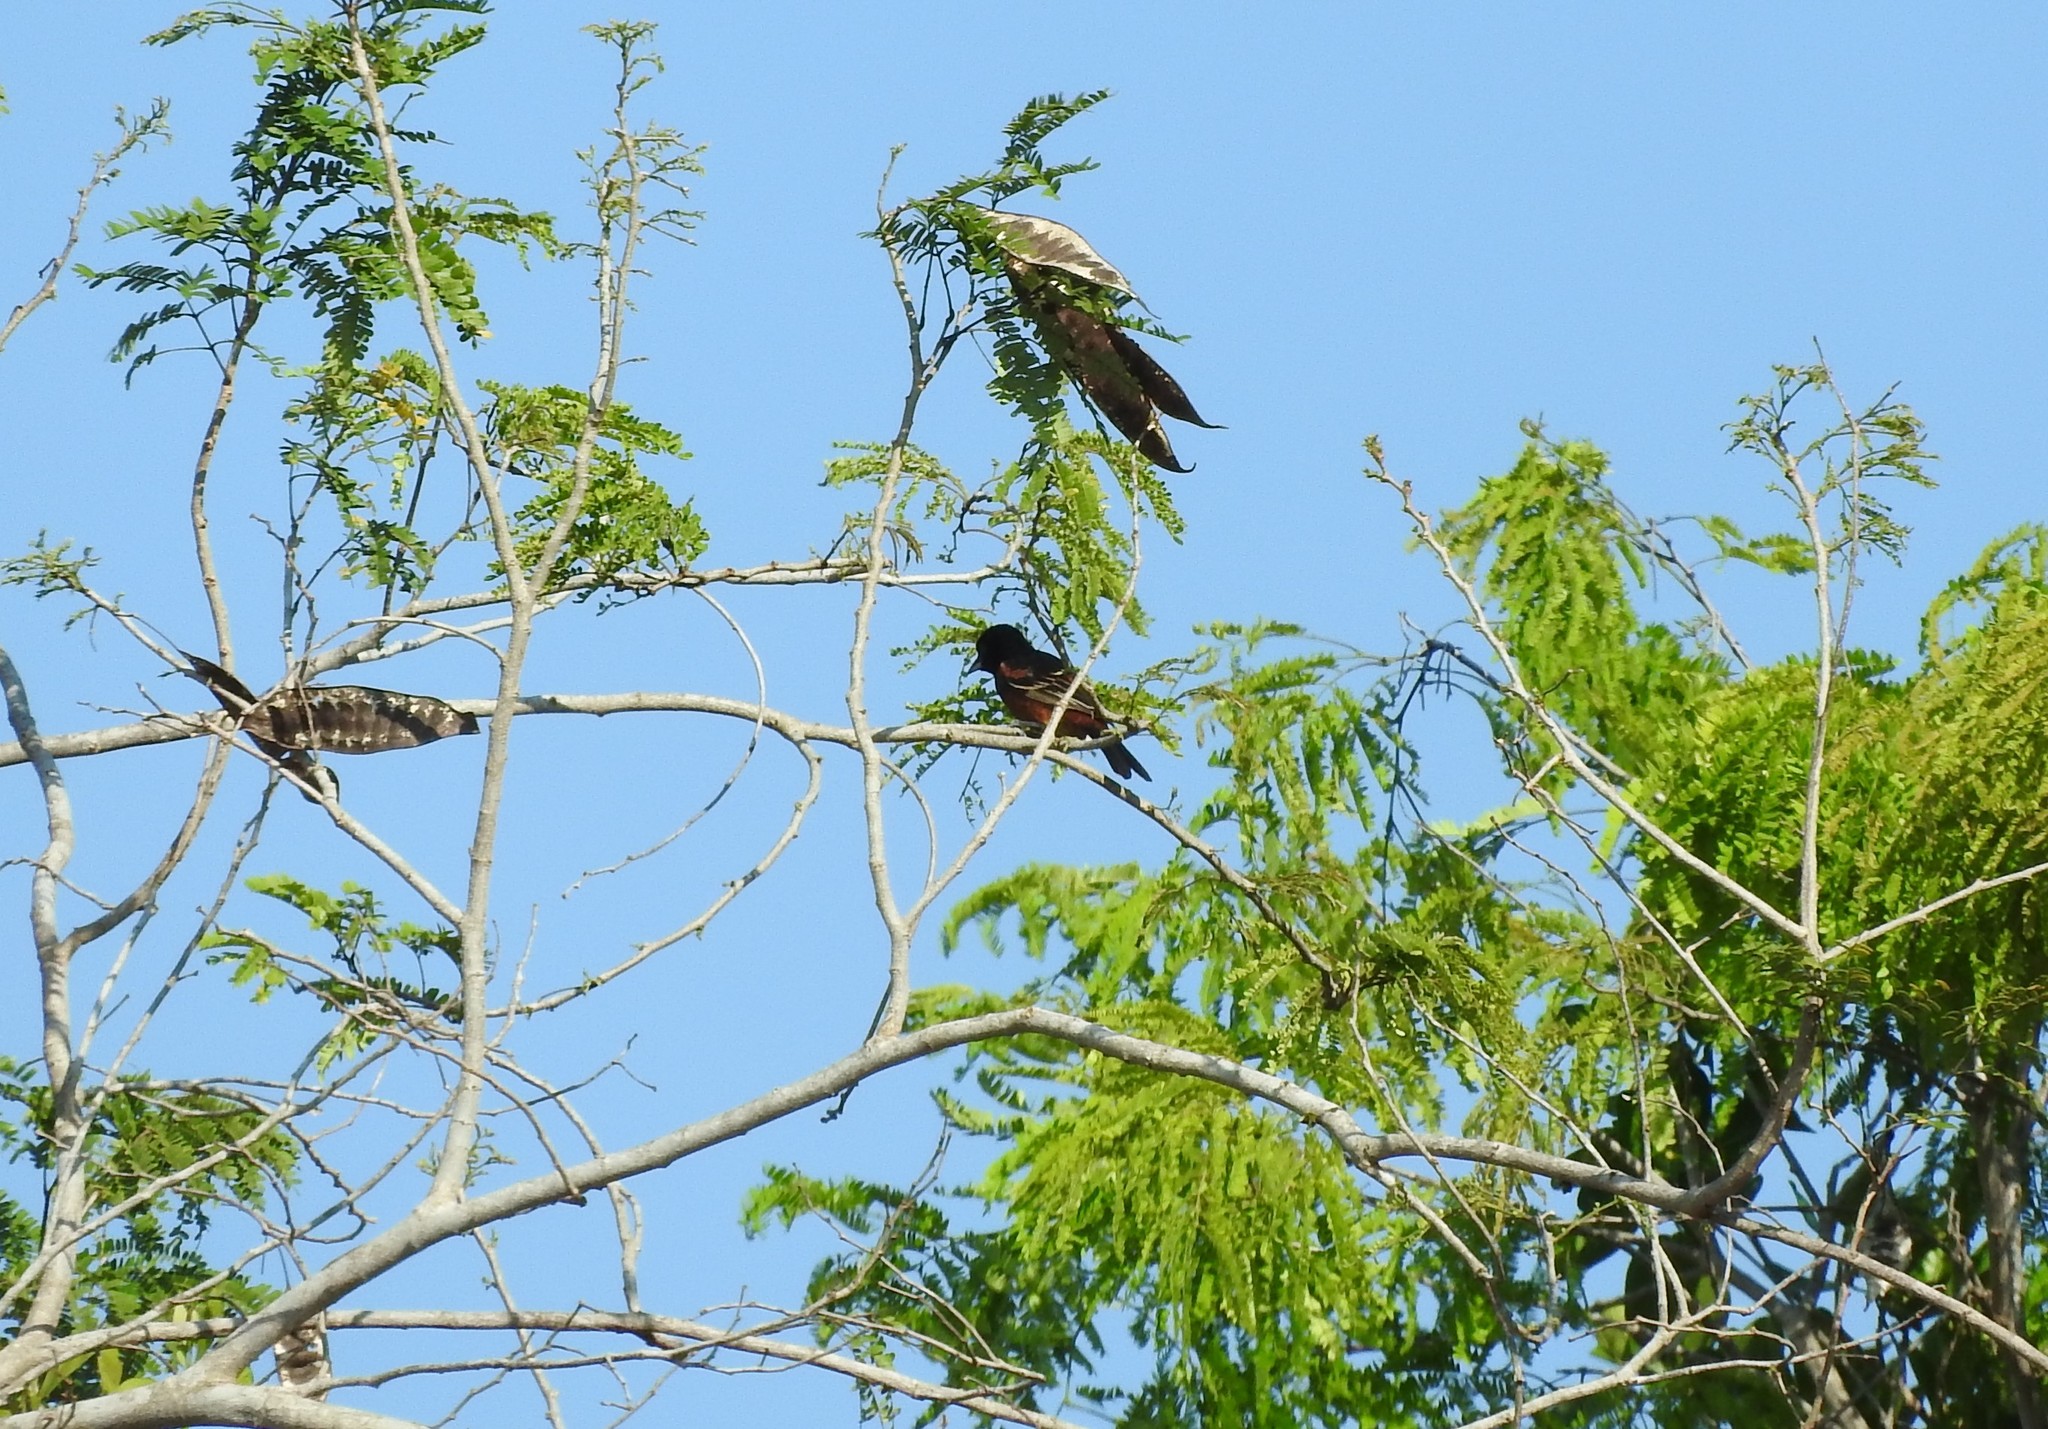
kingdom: Animalia
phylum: Chordata
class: Aves
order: Passeriformes
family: Icteridae
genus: Icterus
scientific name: Icterus spurius
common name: Orchard oriole
